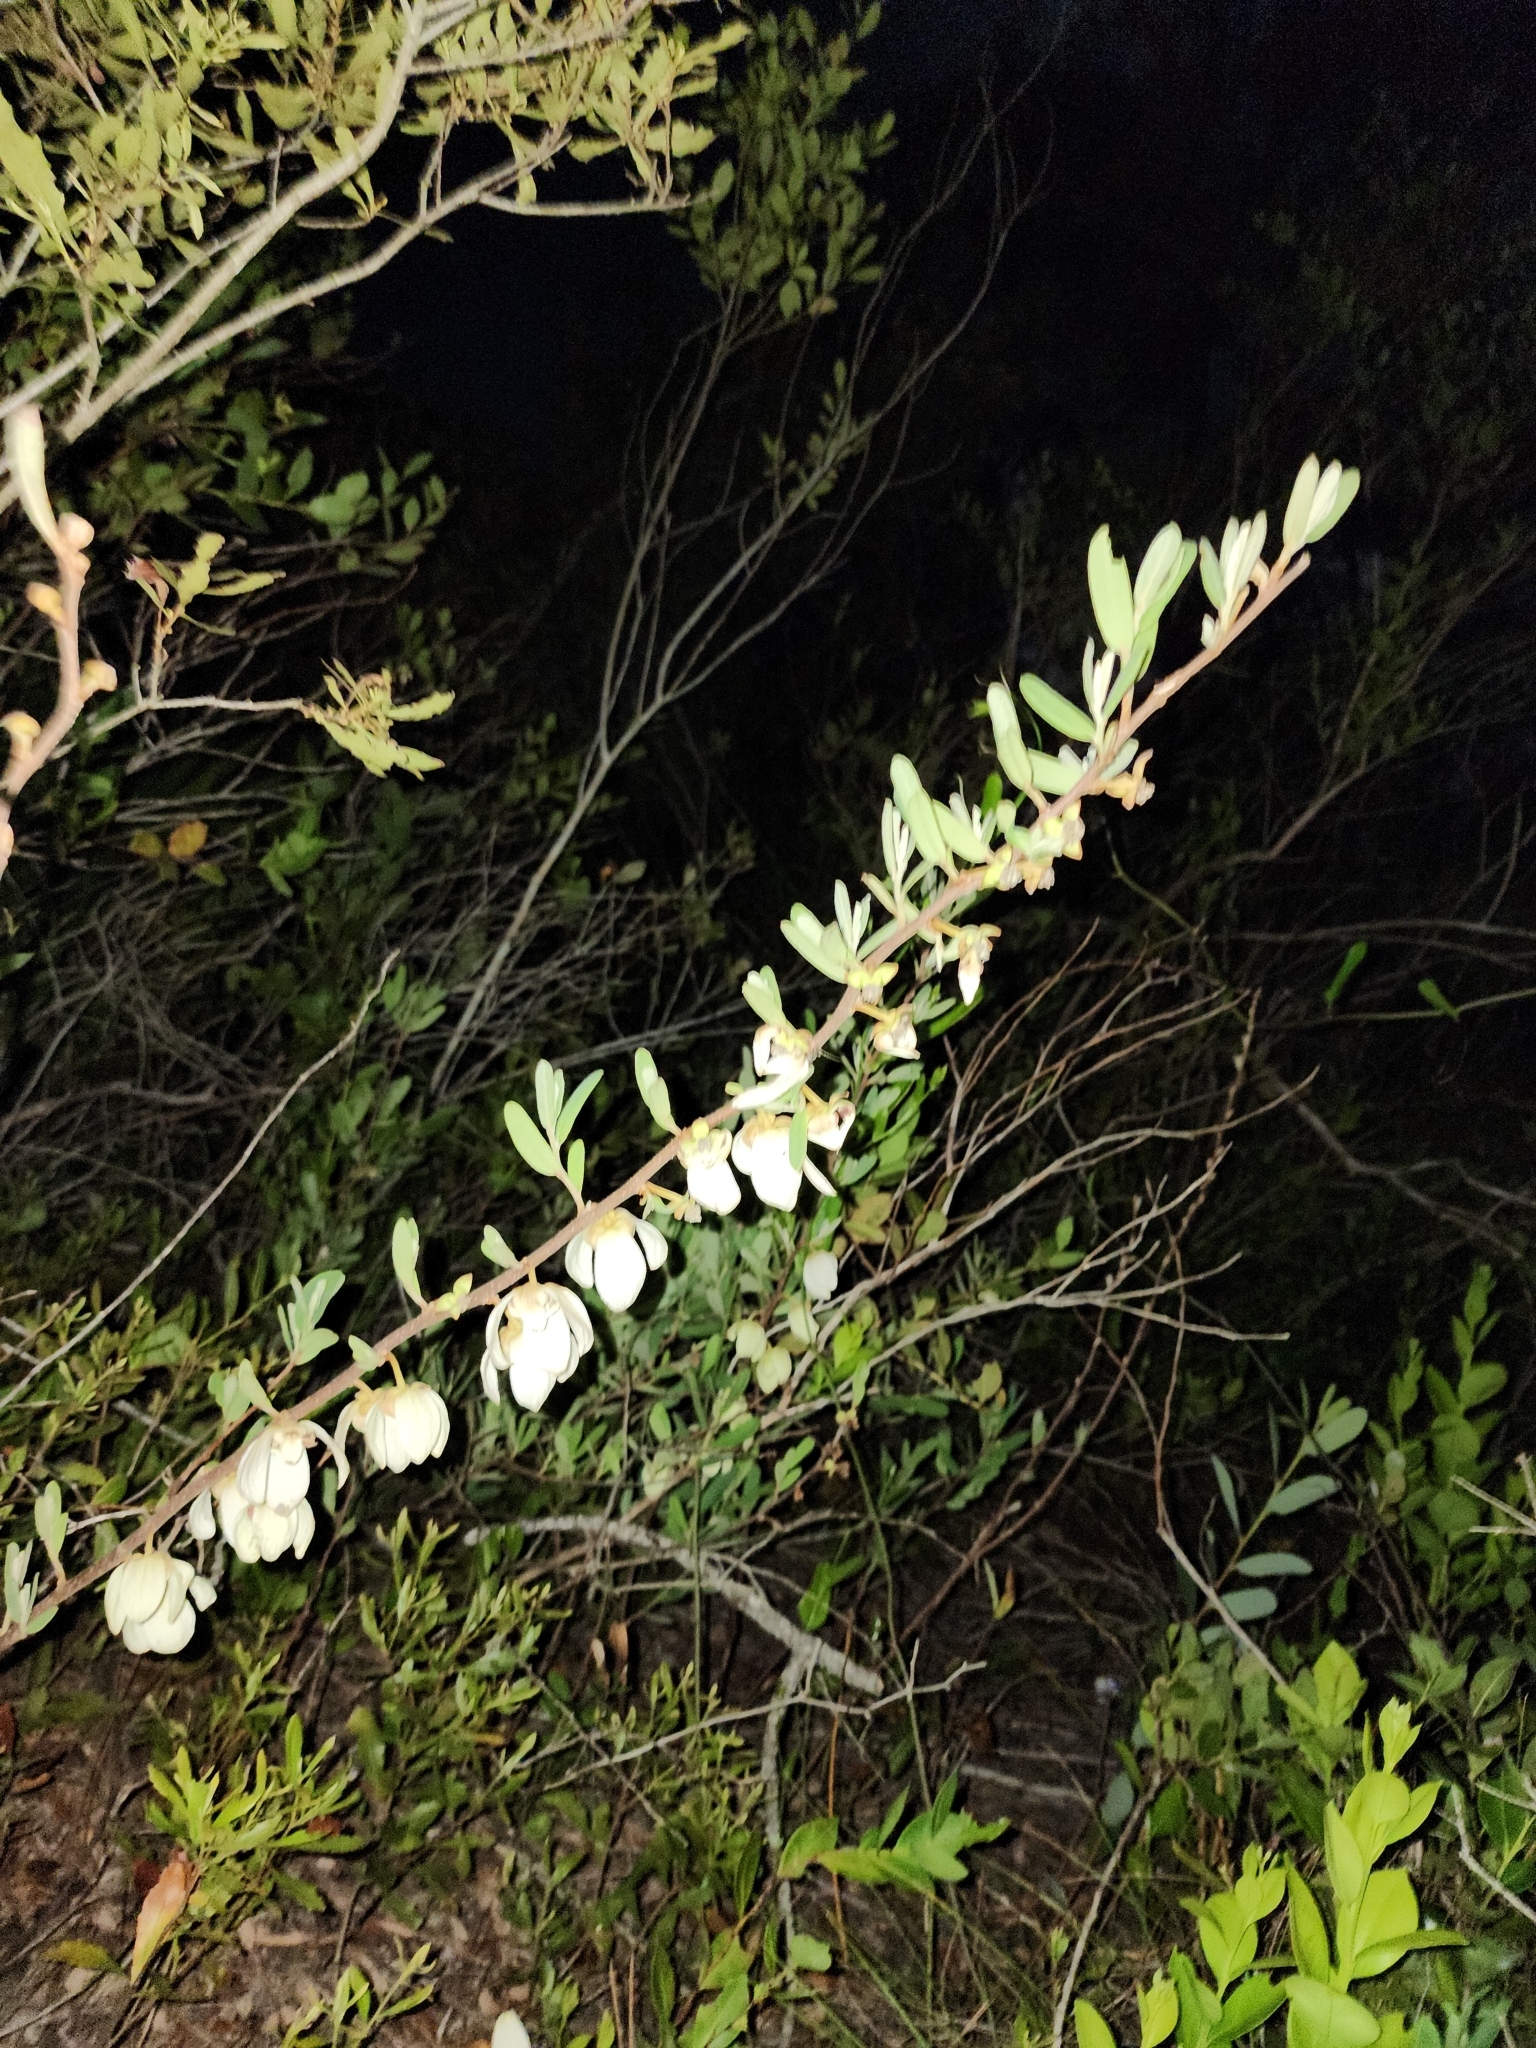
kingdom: Plantae
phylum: Tracheophyta
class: Magnoliopsida
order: Magnoliales
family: Annonaceae
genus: Asimina
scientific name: Asimina reticulata
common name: Flag pawpaw
